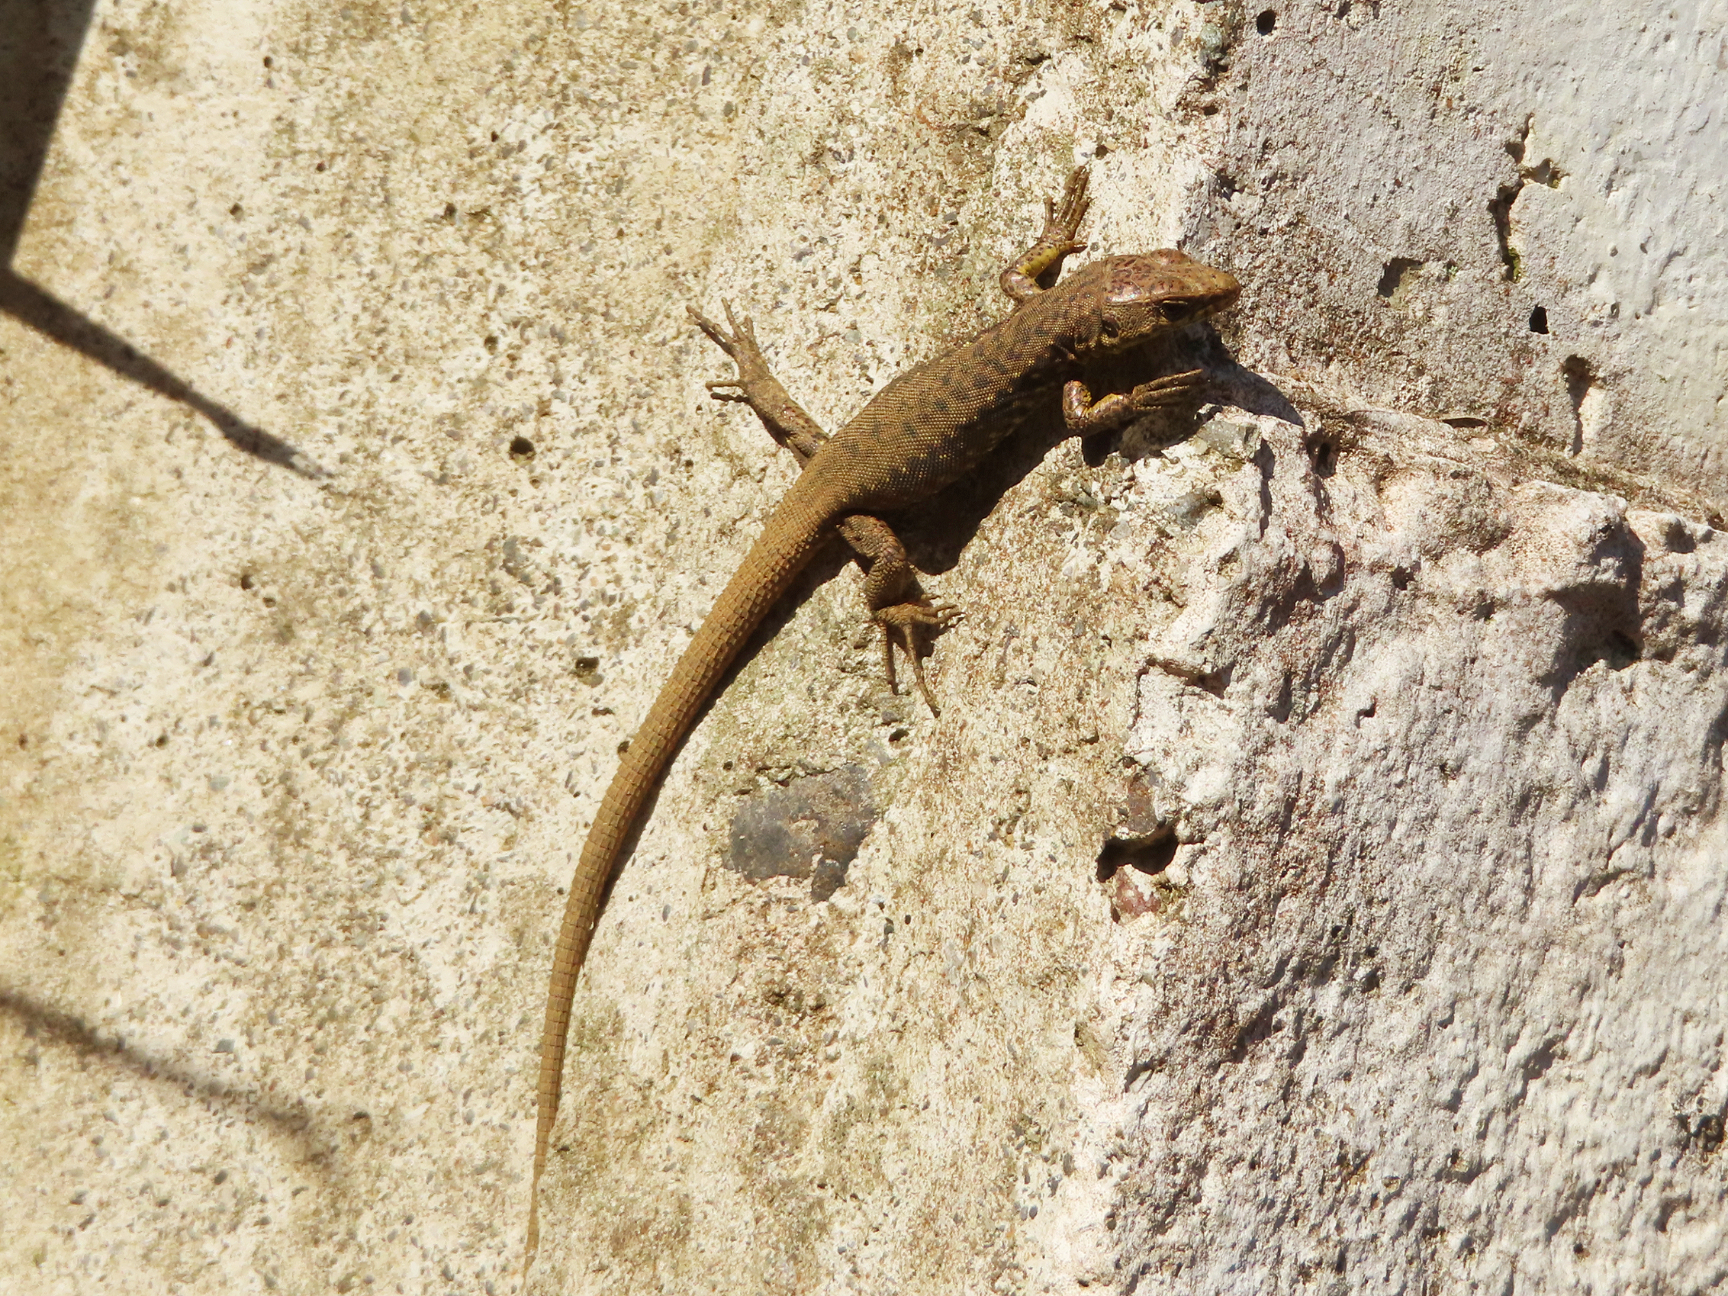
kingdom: Animalia
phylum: Chordata
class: Squamata
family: Lacertidae
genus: Darevskia
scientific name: Darevskia rudis
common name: Spiny-tailed lizard
